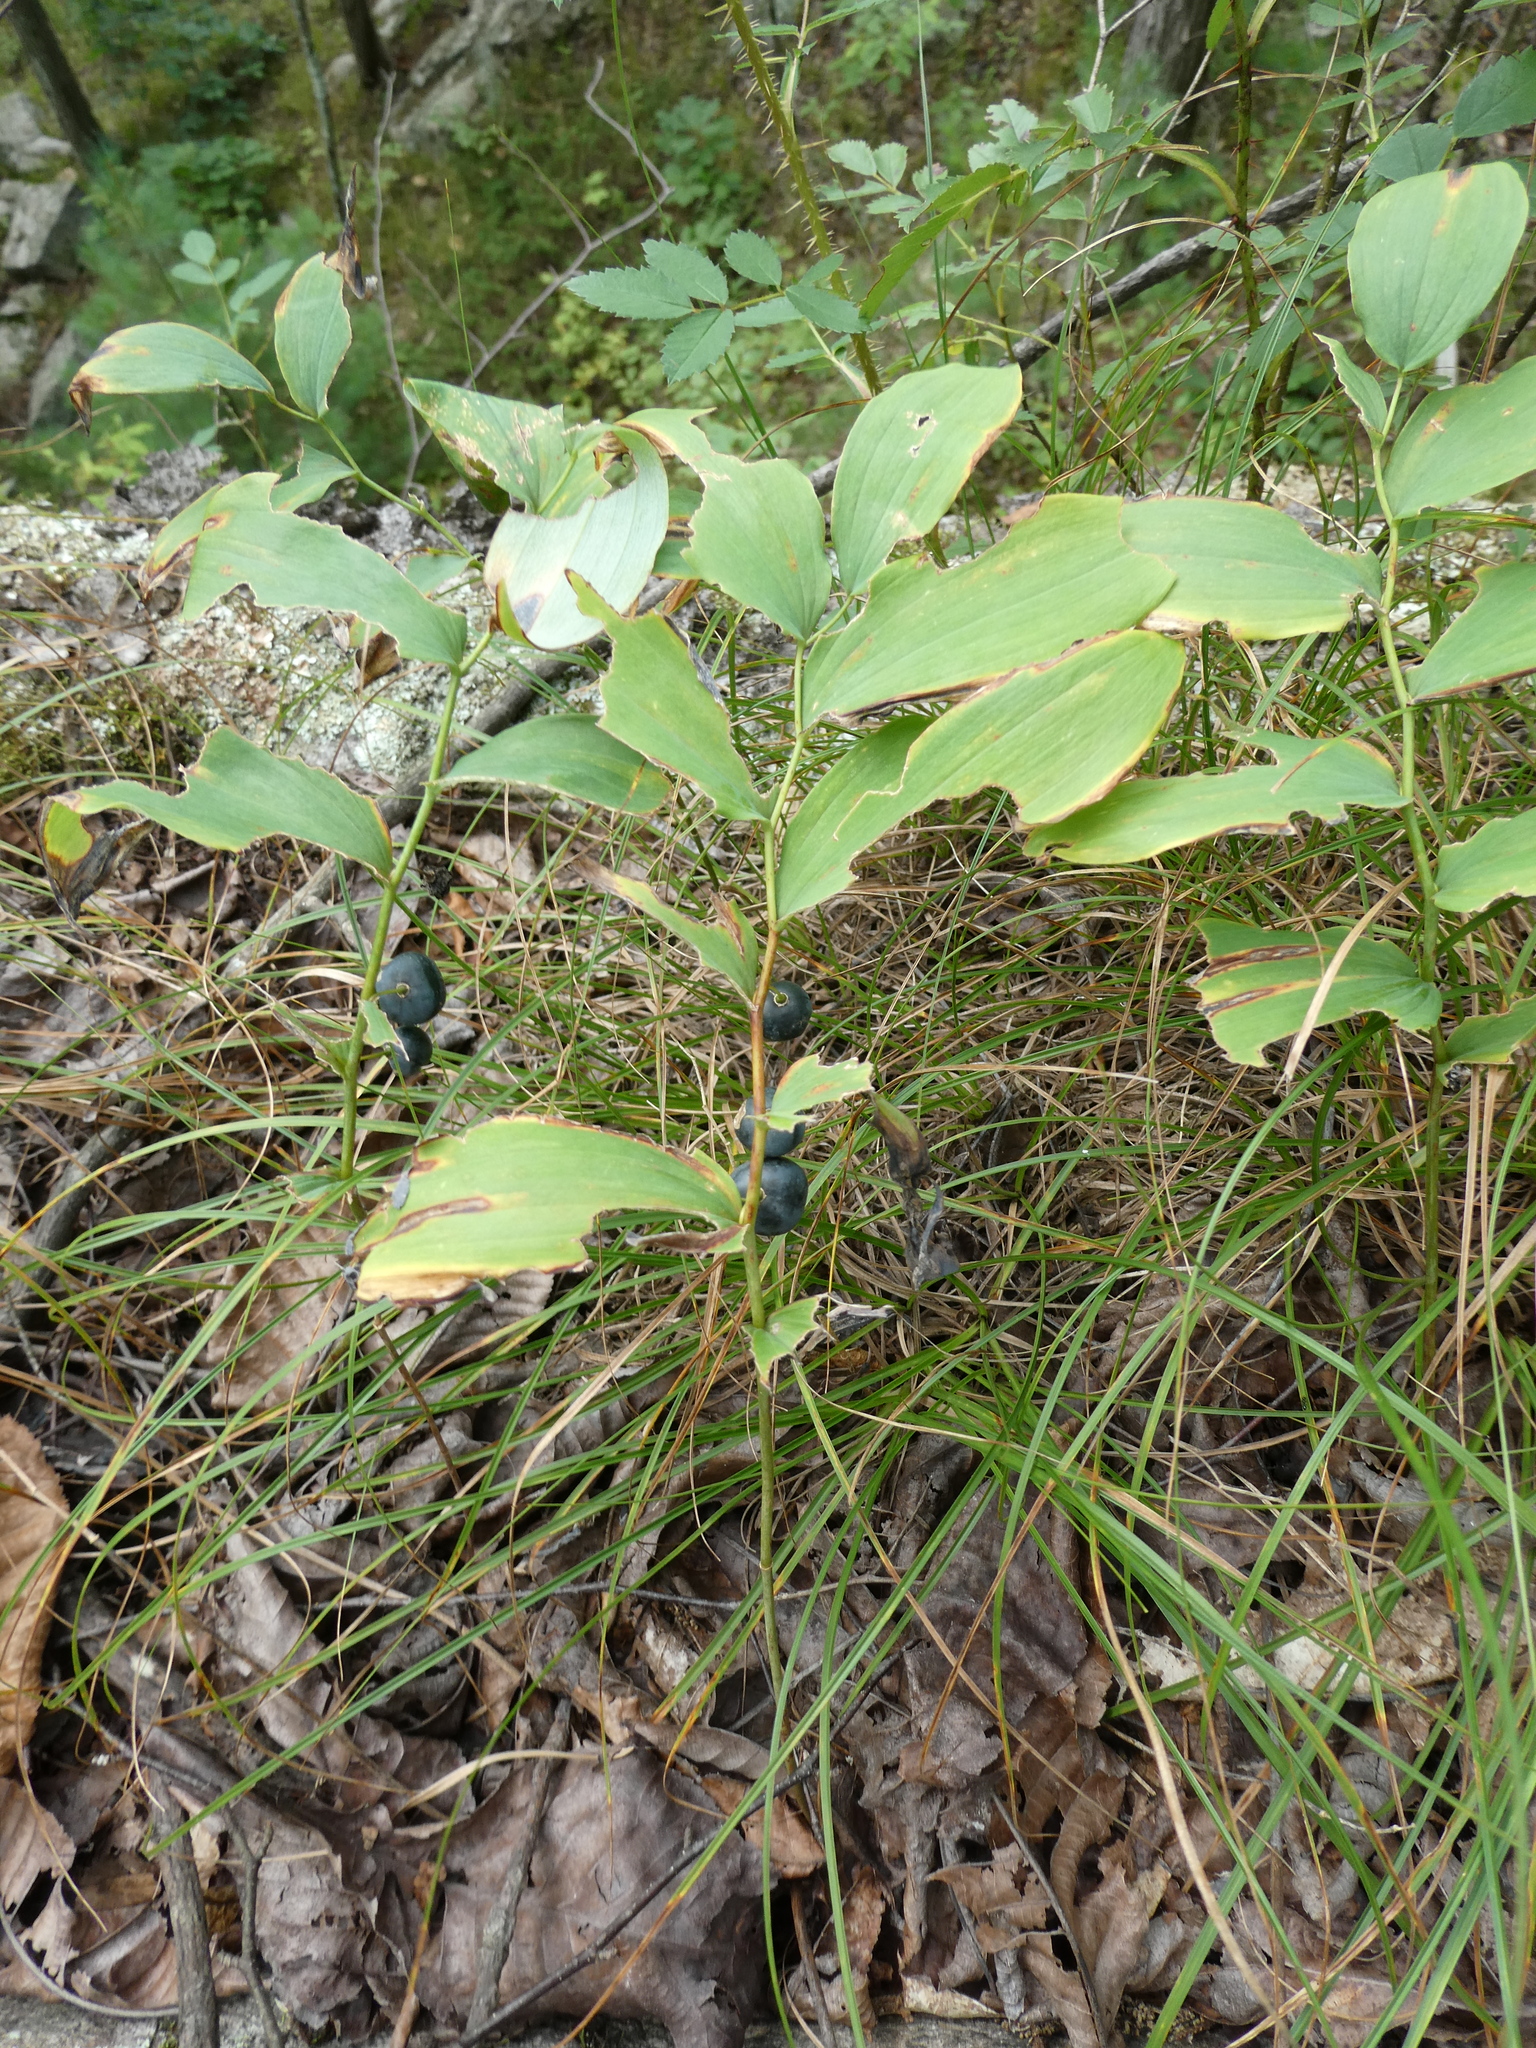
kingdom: Plantae
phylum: Tracheophyta
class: Liliopsida
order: Asparagales
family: Asparagaceae
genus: Polygonatum
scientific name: Polygonatum pubescens
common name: Downy solomon's seal
